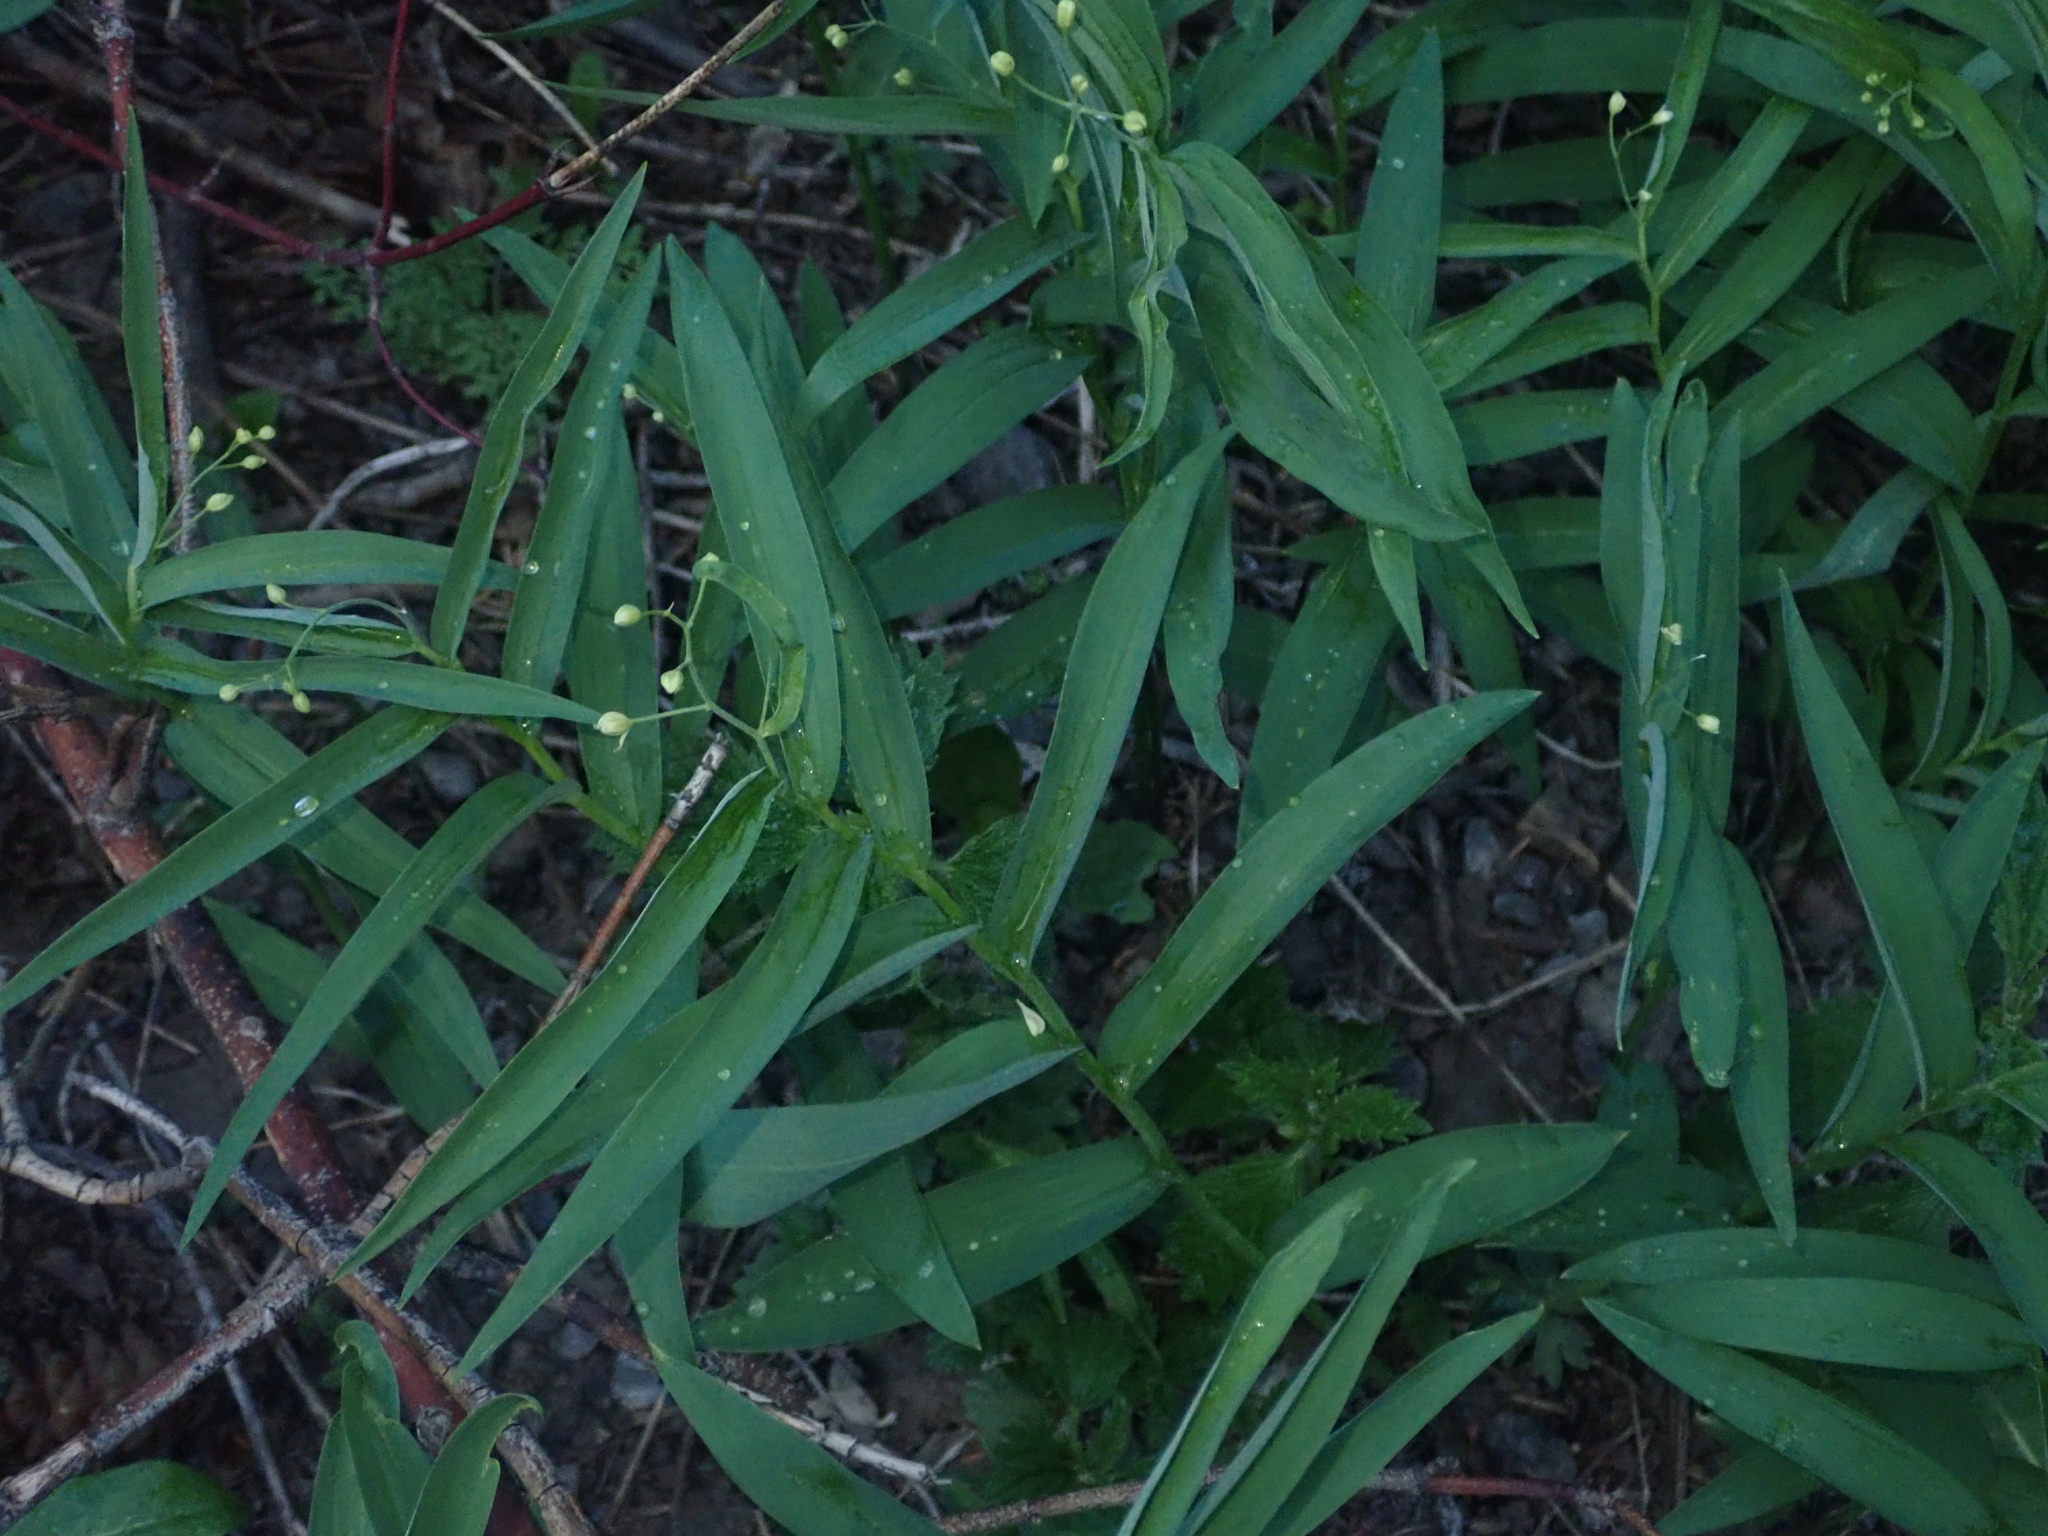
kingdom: Plantae
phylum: Tracheophyta
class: Liliopsida
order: Asparagales
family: Asparagaceae
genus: Maianthemum
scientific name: Maianthemum stellatum
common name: Little false solomon's seal
